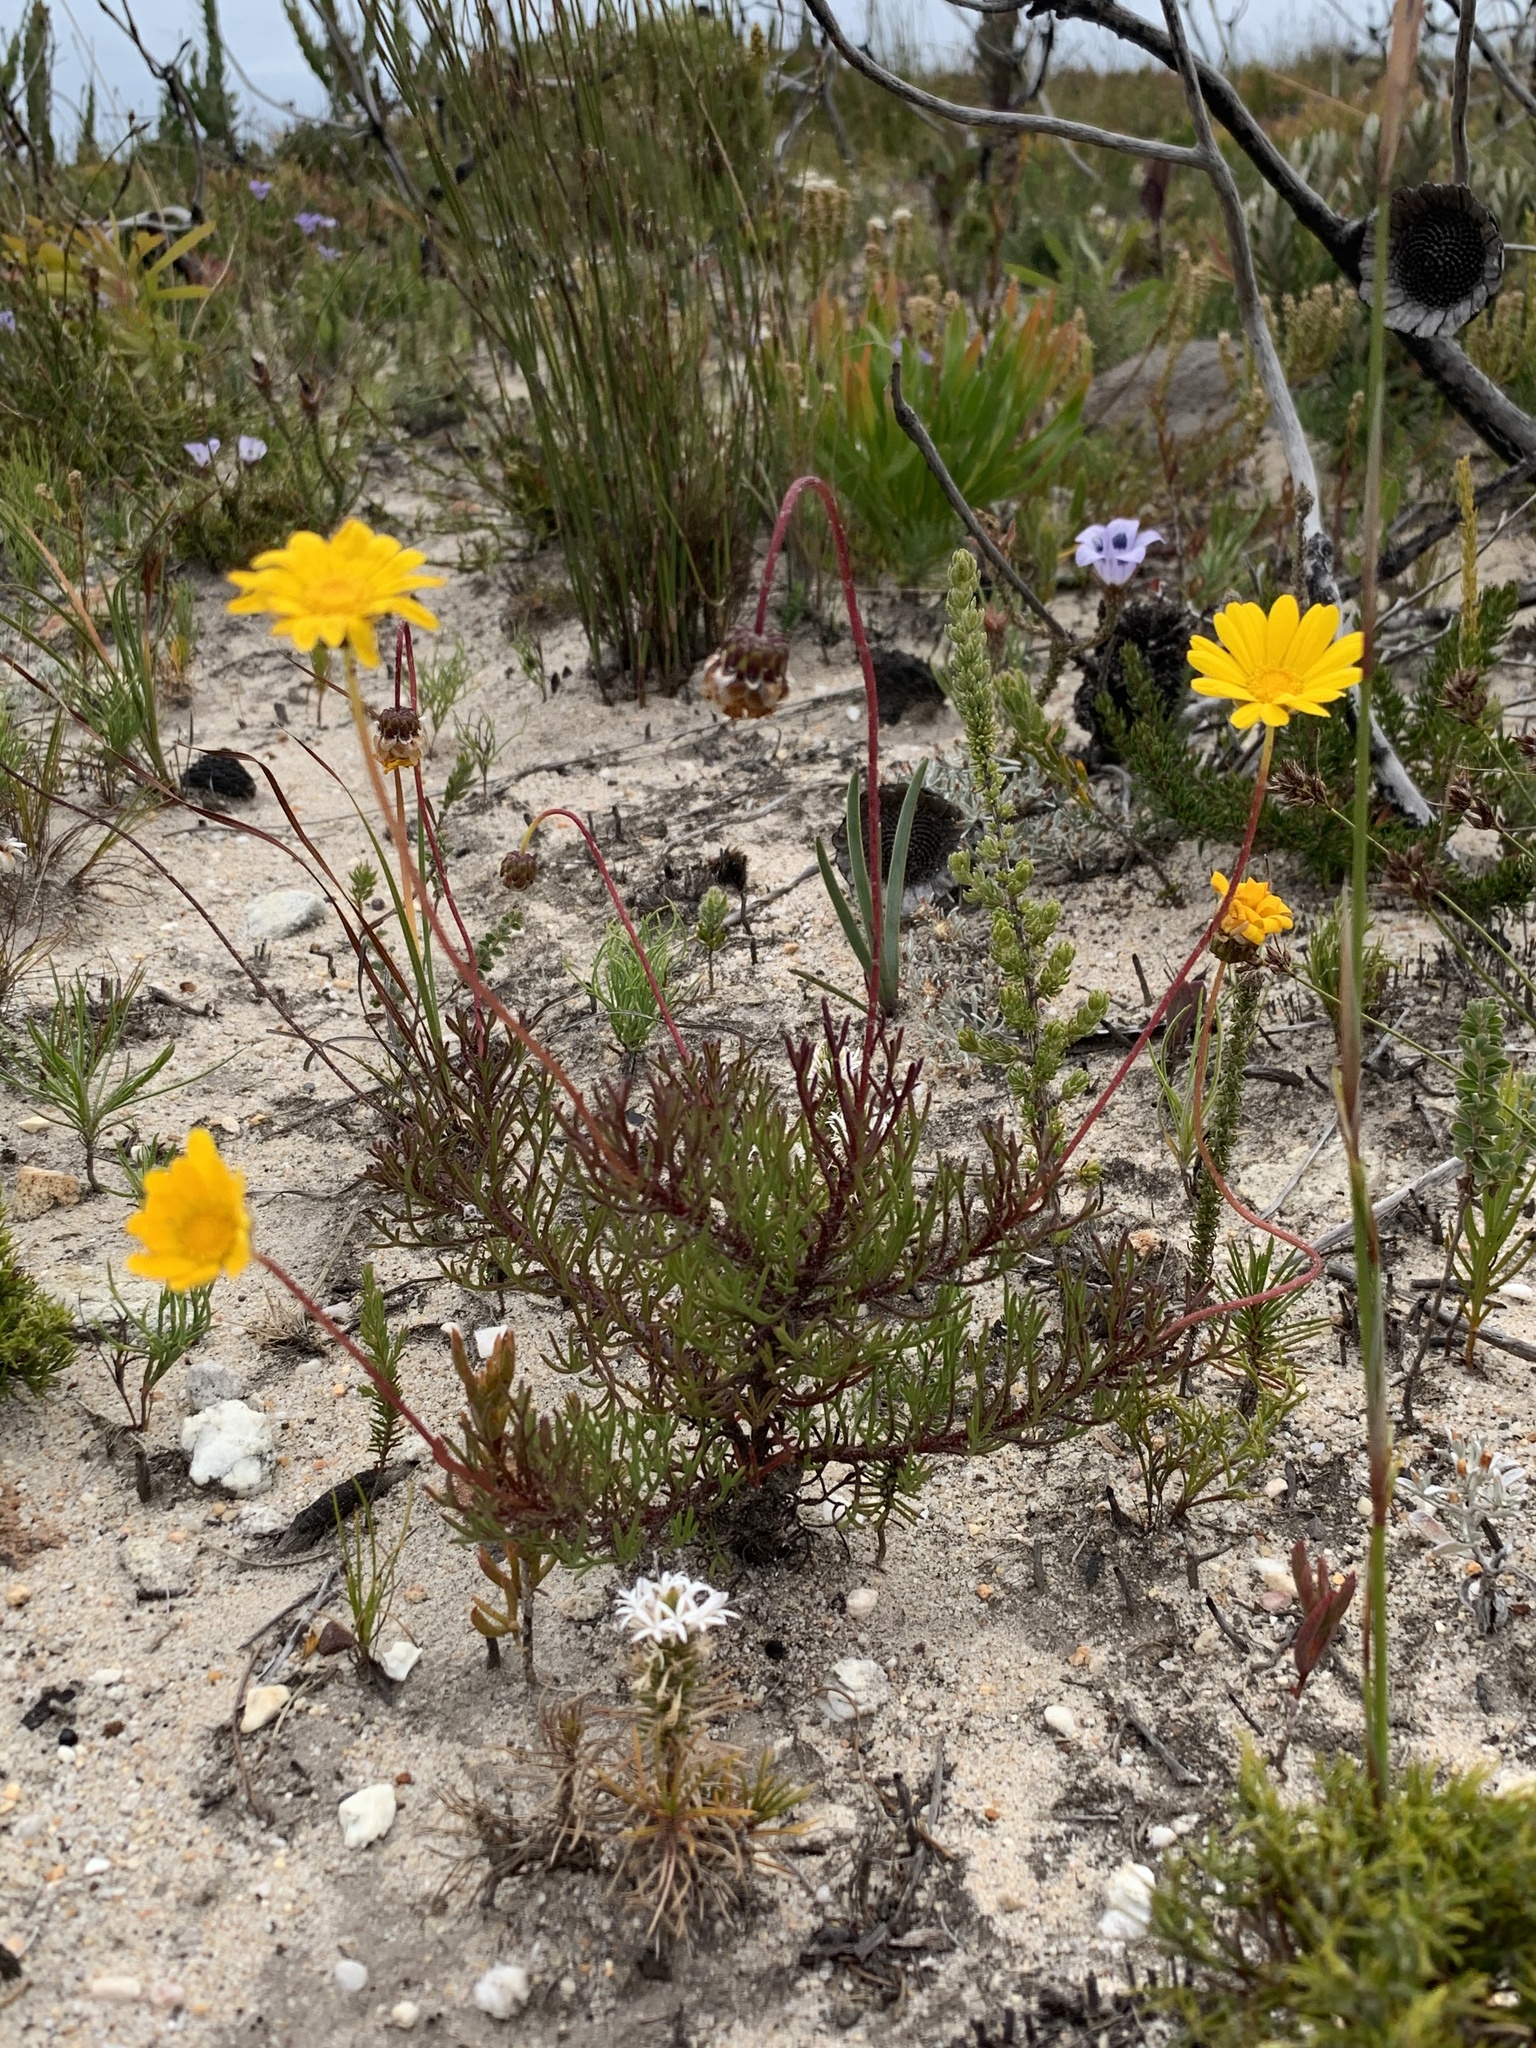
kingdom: Plantae
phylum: Tracheophyta
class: Magnoliopsida
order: Asterales
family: Asteraceae
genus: Ursinia
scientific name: Ursinia paleacea
